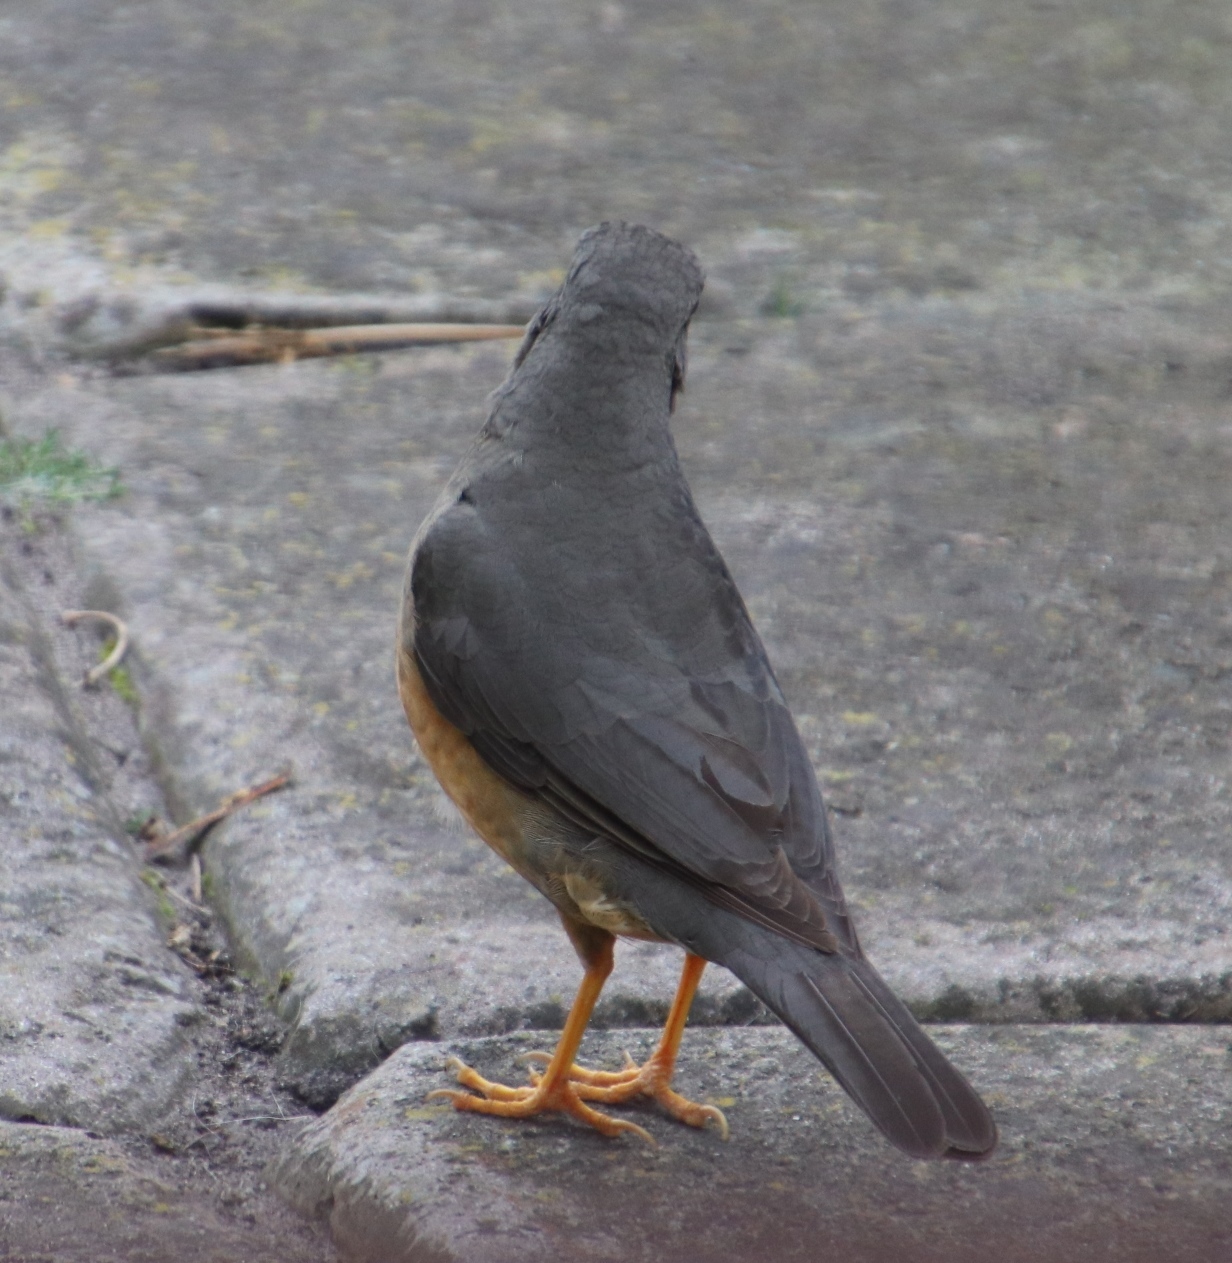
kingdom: Animalia
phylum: Chordata
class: Aves
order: Passeriformes
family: Turdidae
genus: Turdus
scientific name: Turdus olivaceus
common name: Olive thrush
